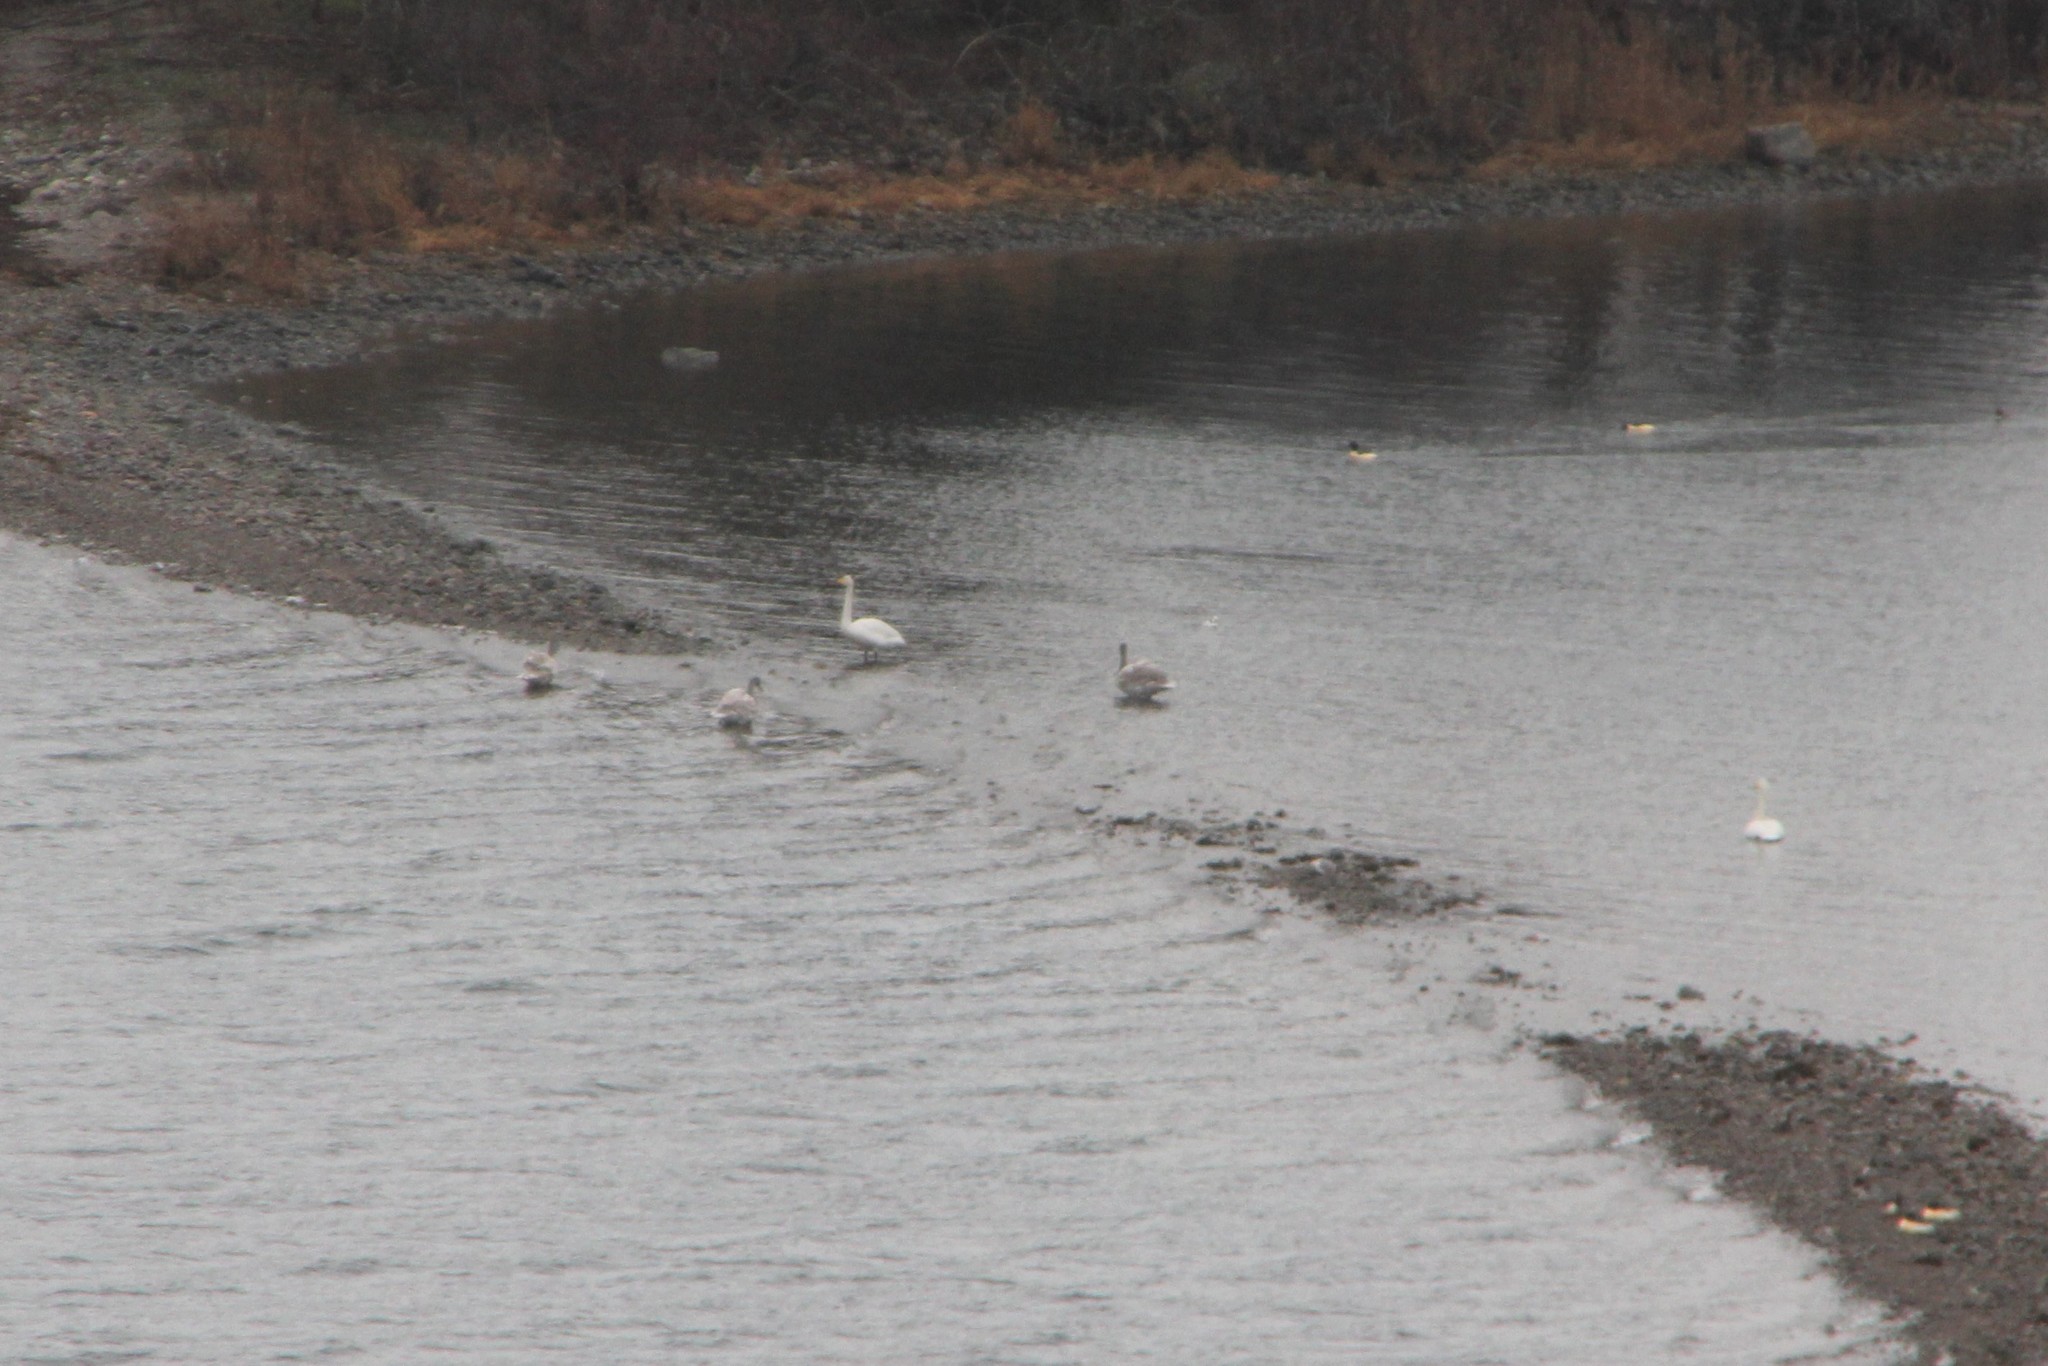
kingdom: Animalia
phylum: Chordata
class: Aves
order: Anseriformes
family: Anatidae
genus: Cygnus
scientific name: Cygnus cygnus
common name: Whooper swan
